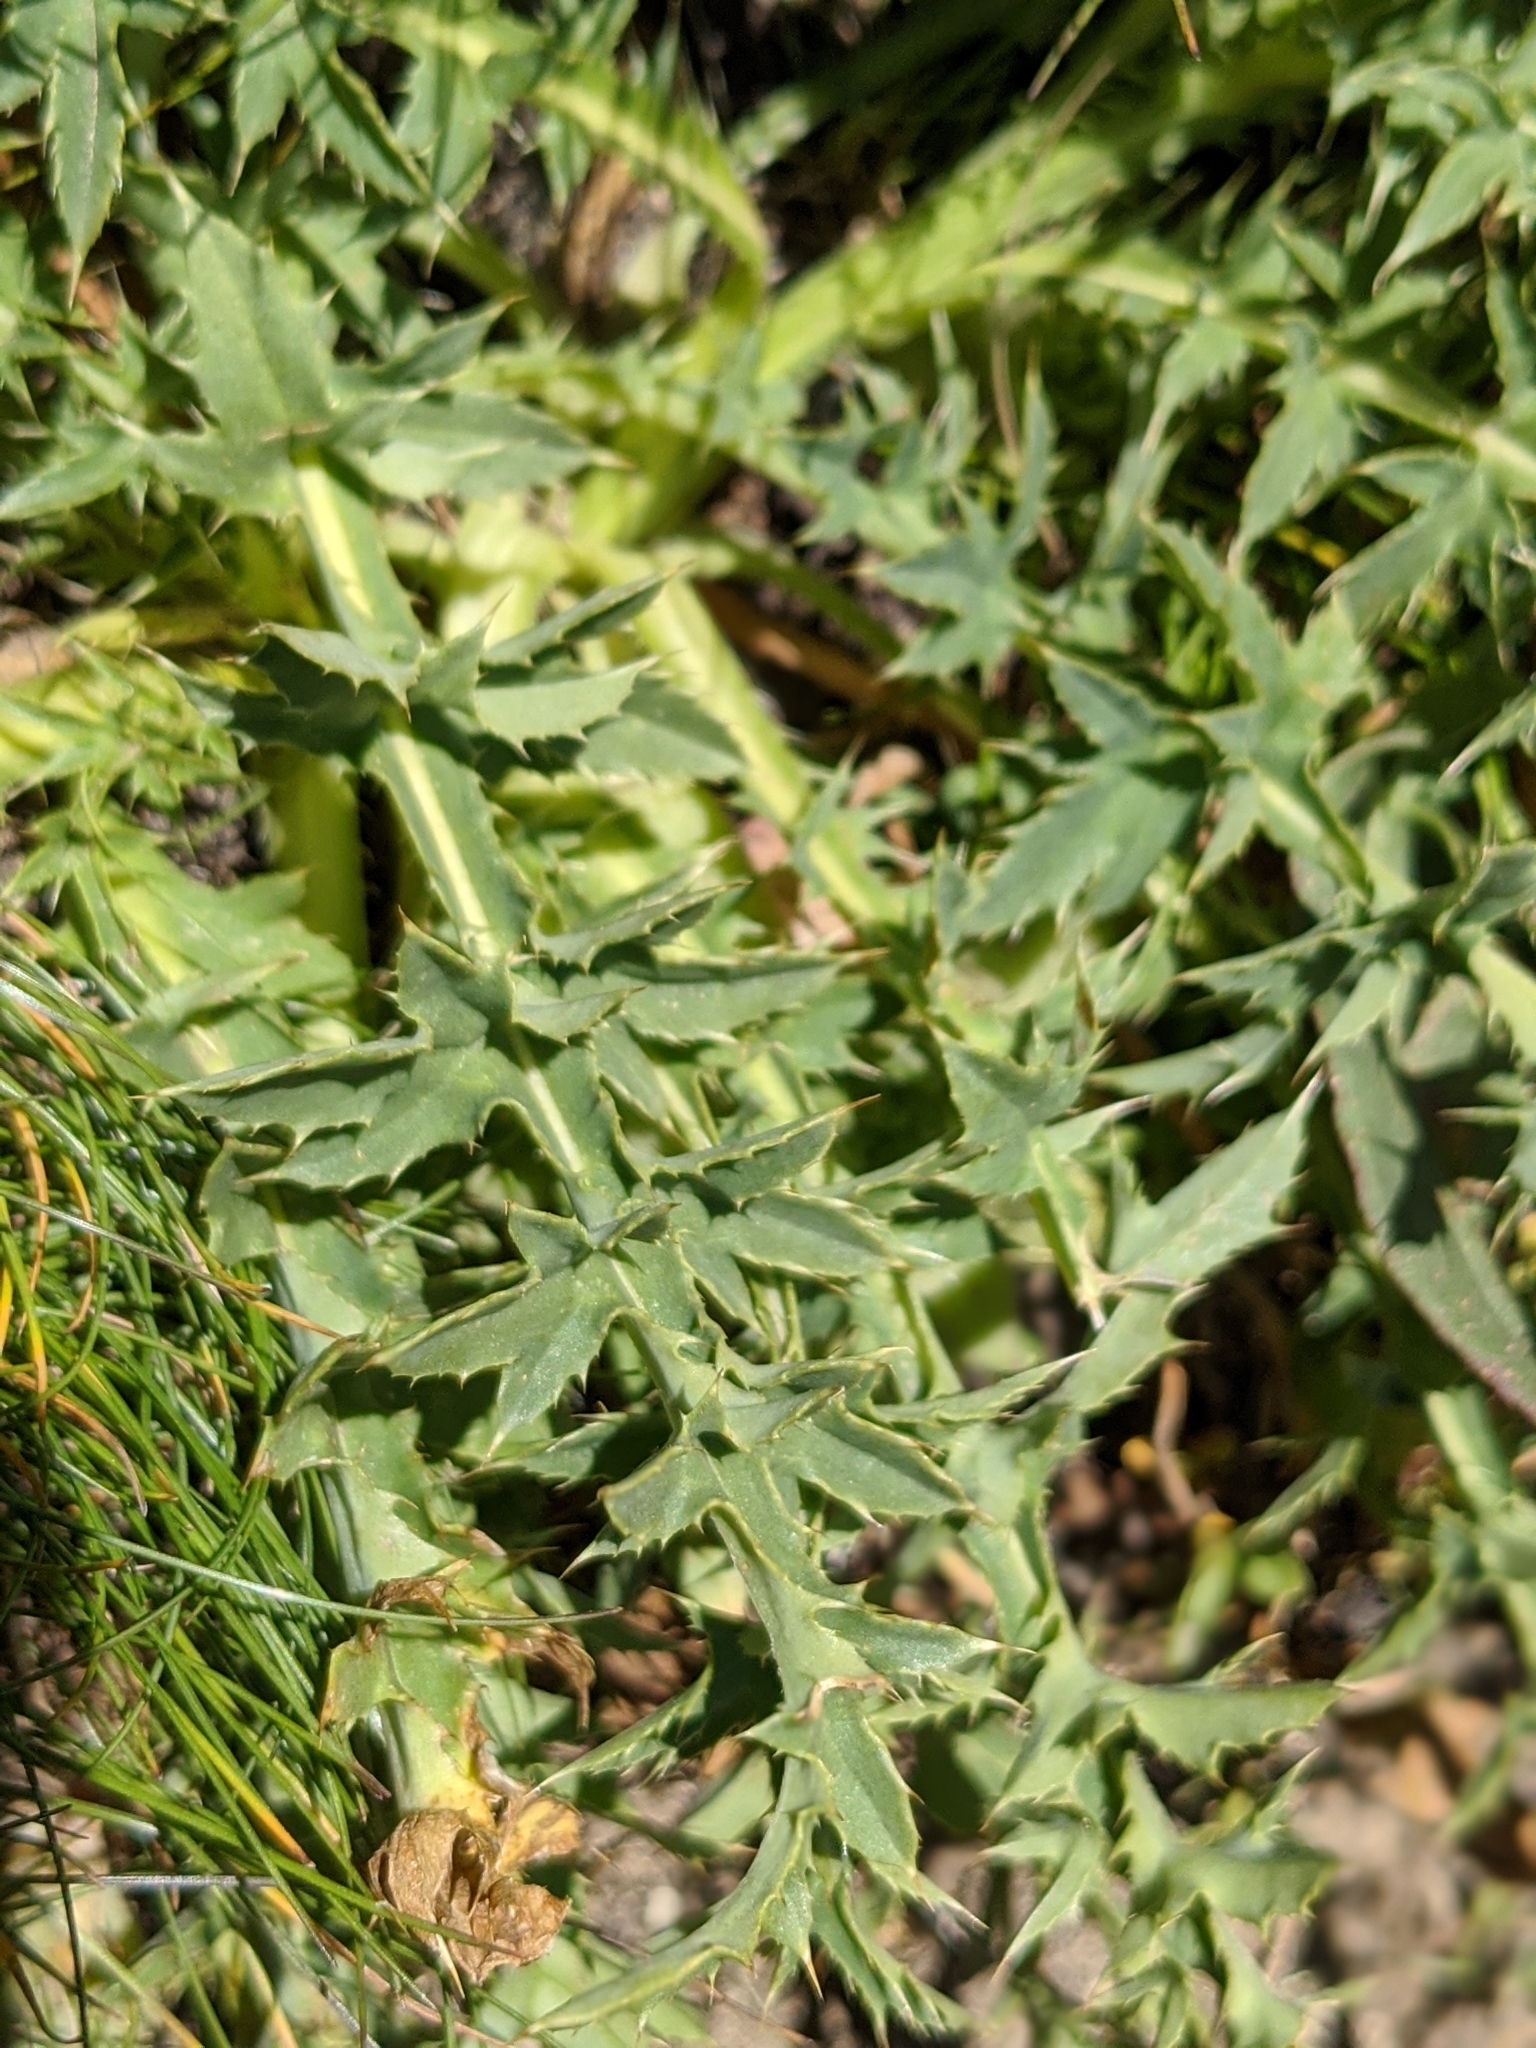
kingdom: Plantae
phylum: Tracheophyta
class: Magnoliopsida
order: Asterales
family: Asteraceae
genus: Carduus
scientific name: Carduus defloratus
